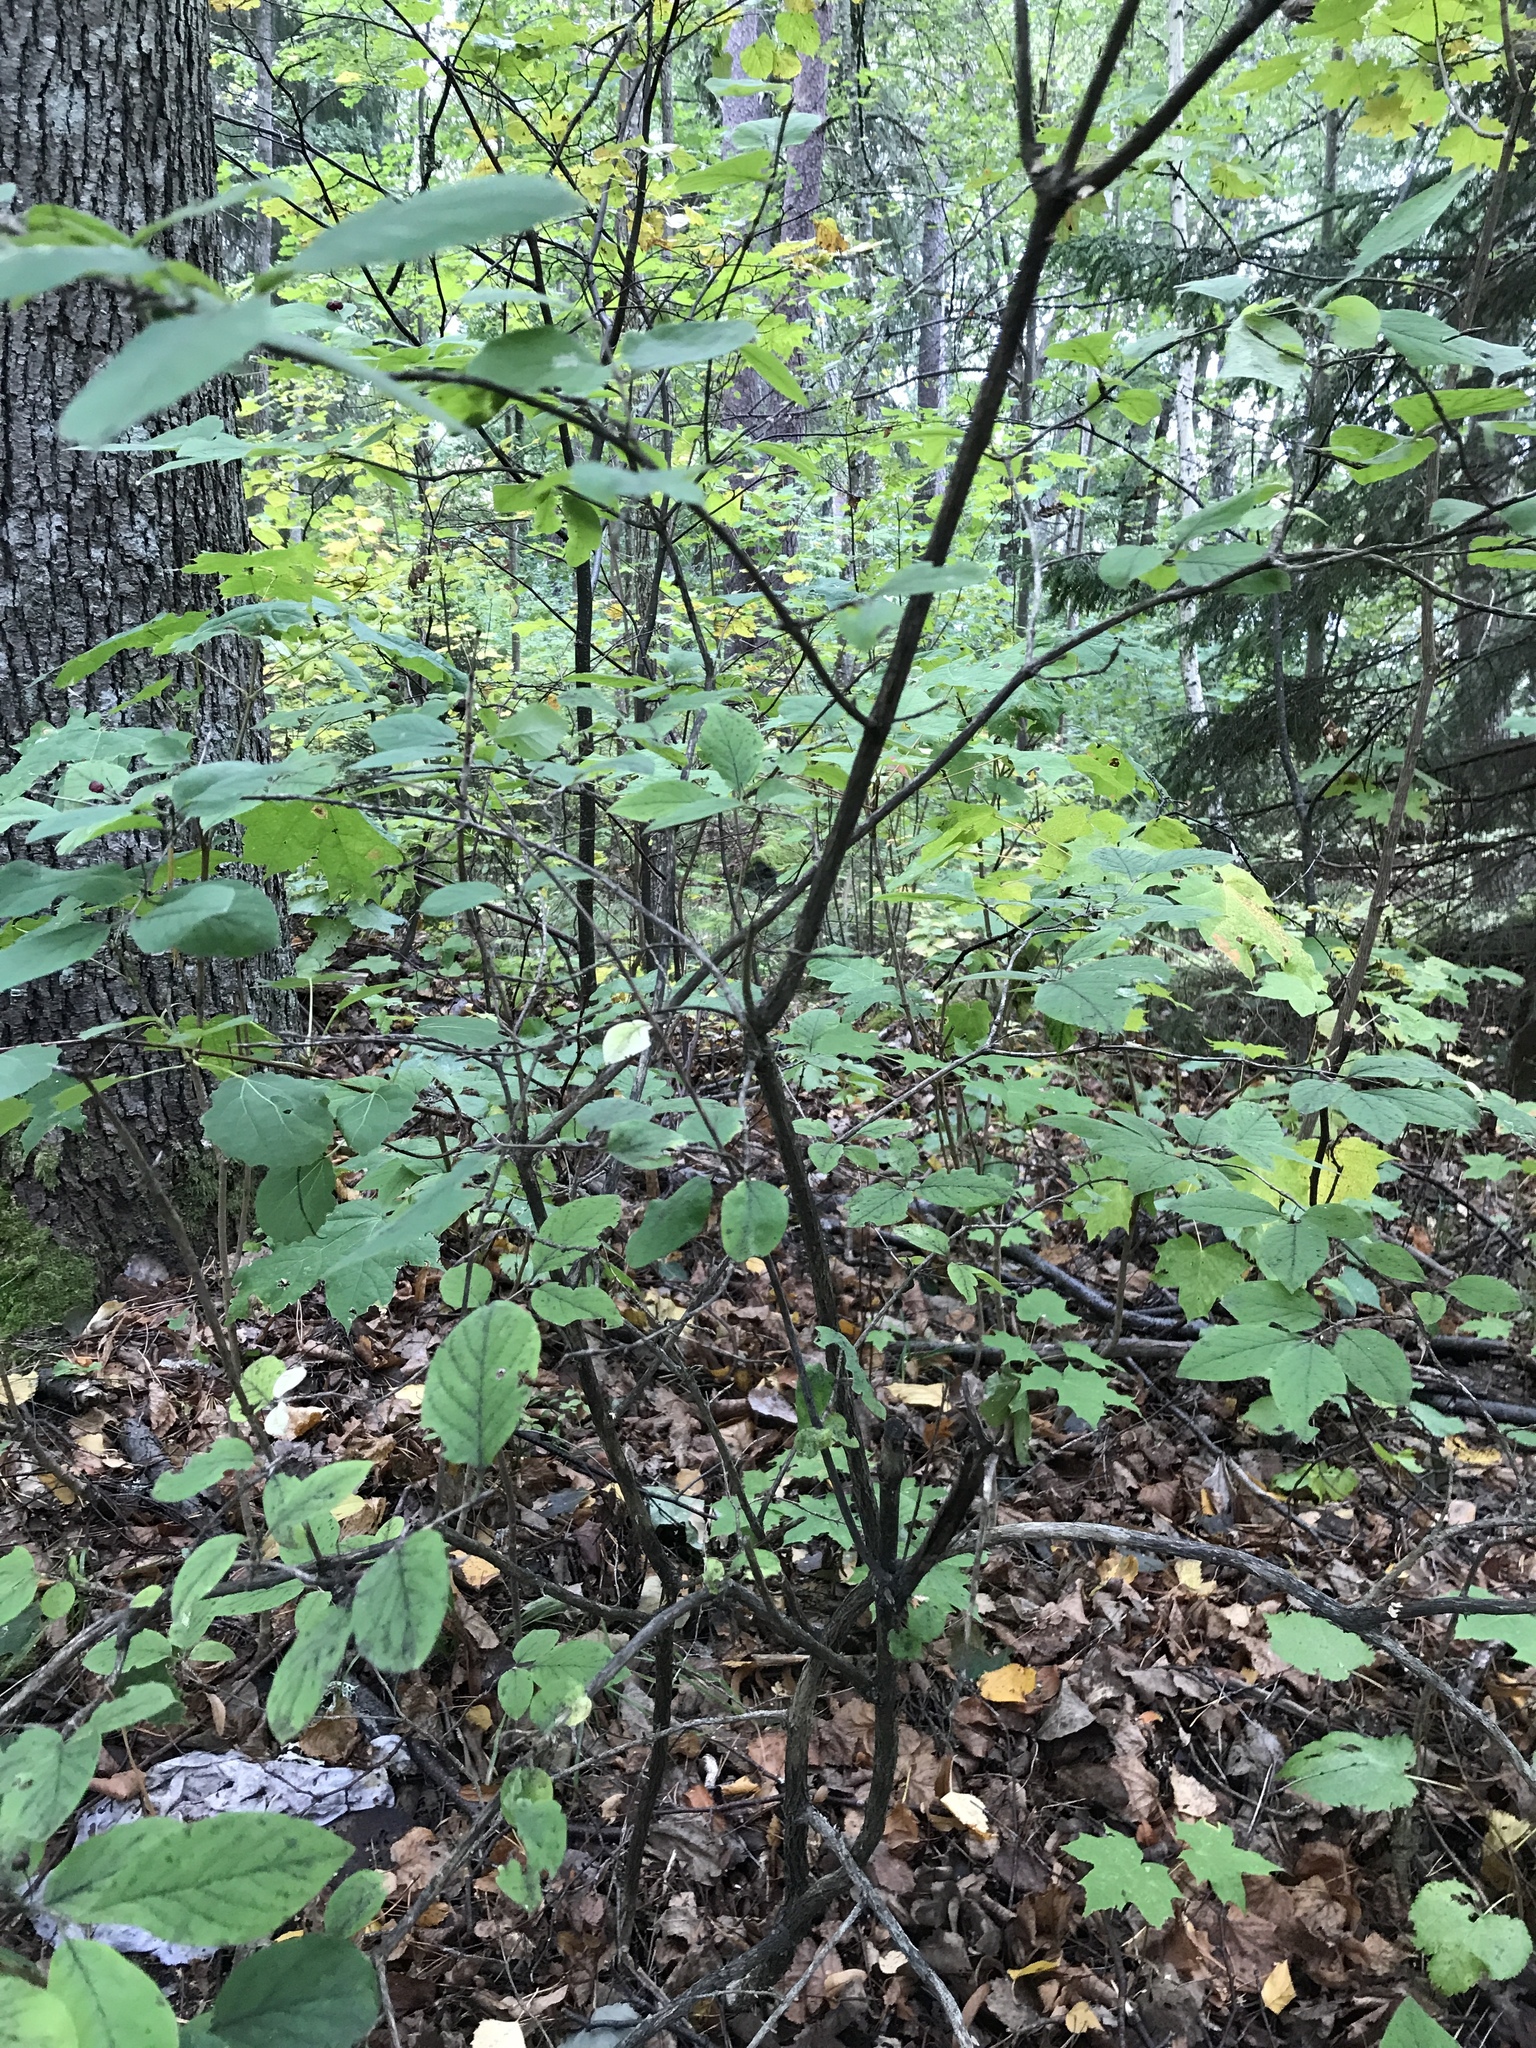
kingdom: Plantae
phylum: Tracheophyta
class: Magnoliopsida
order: Dipsacales
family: Caprifoliaceae
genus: Lonicera
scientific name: Lonicera xylosteum
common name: Fly honeysuckle
